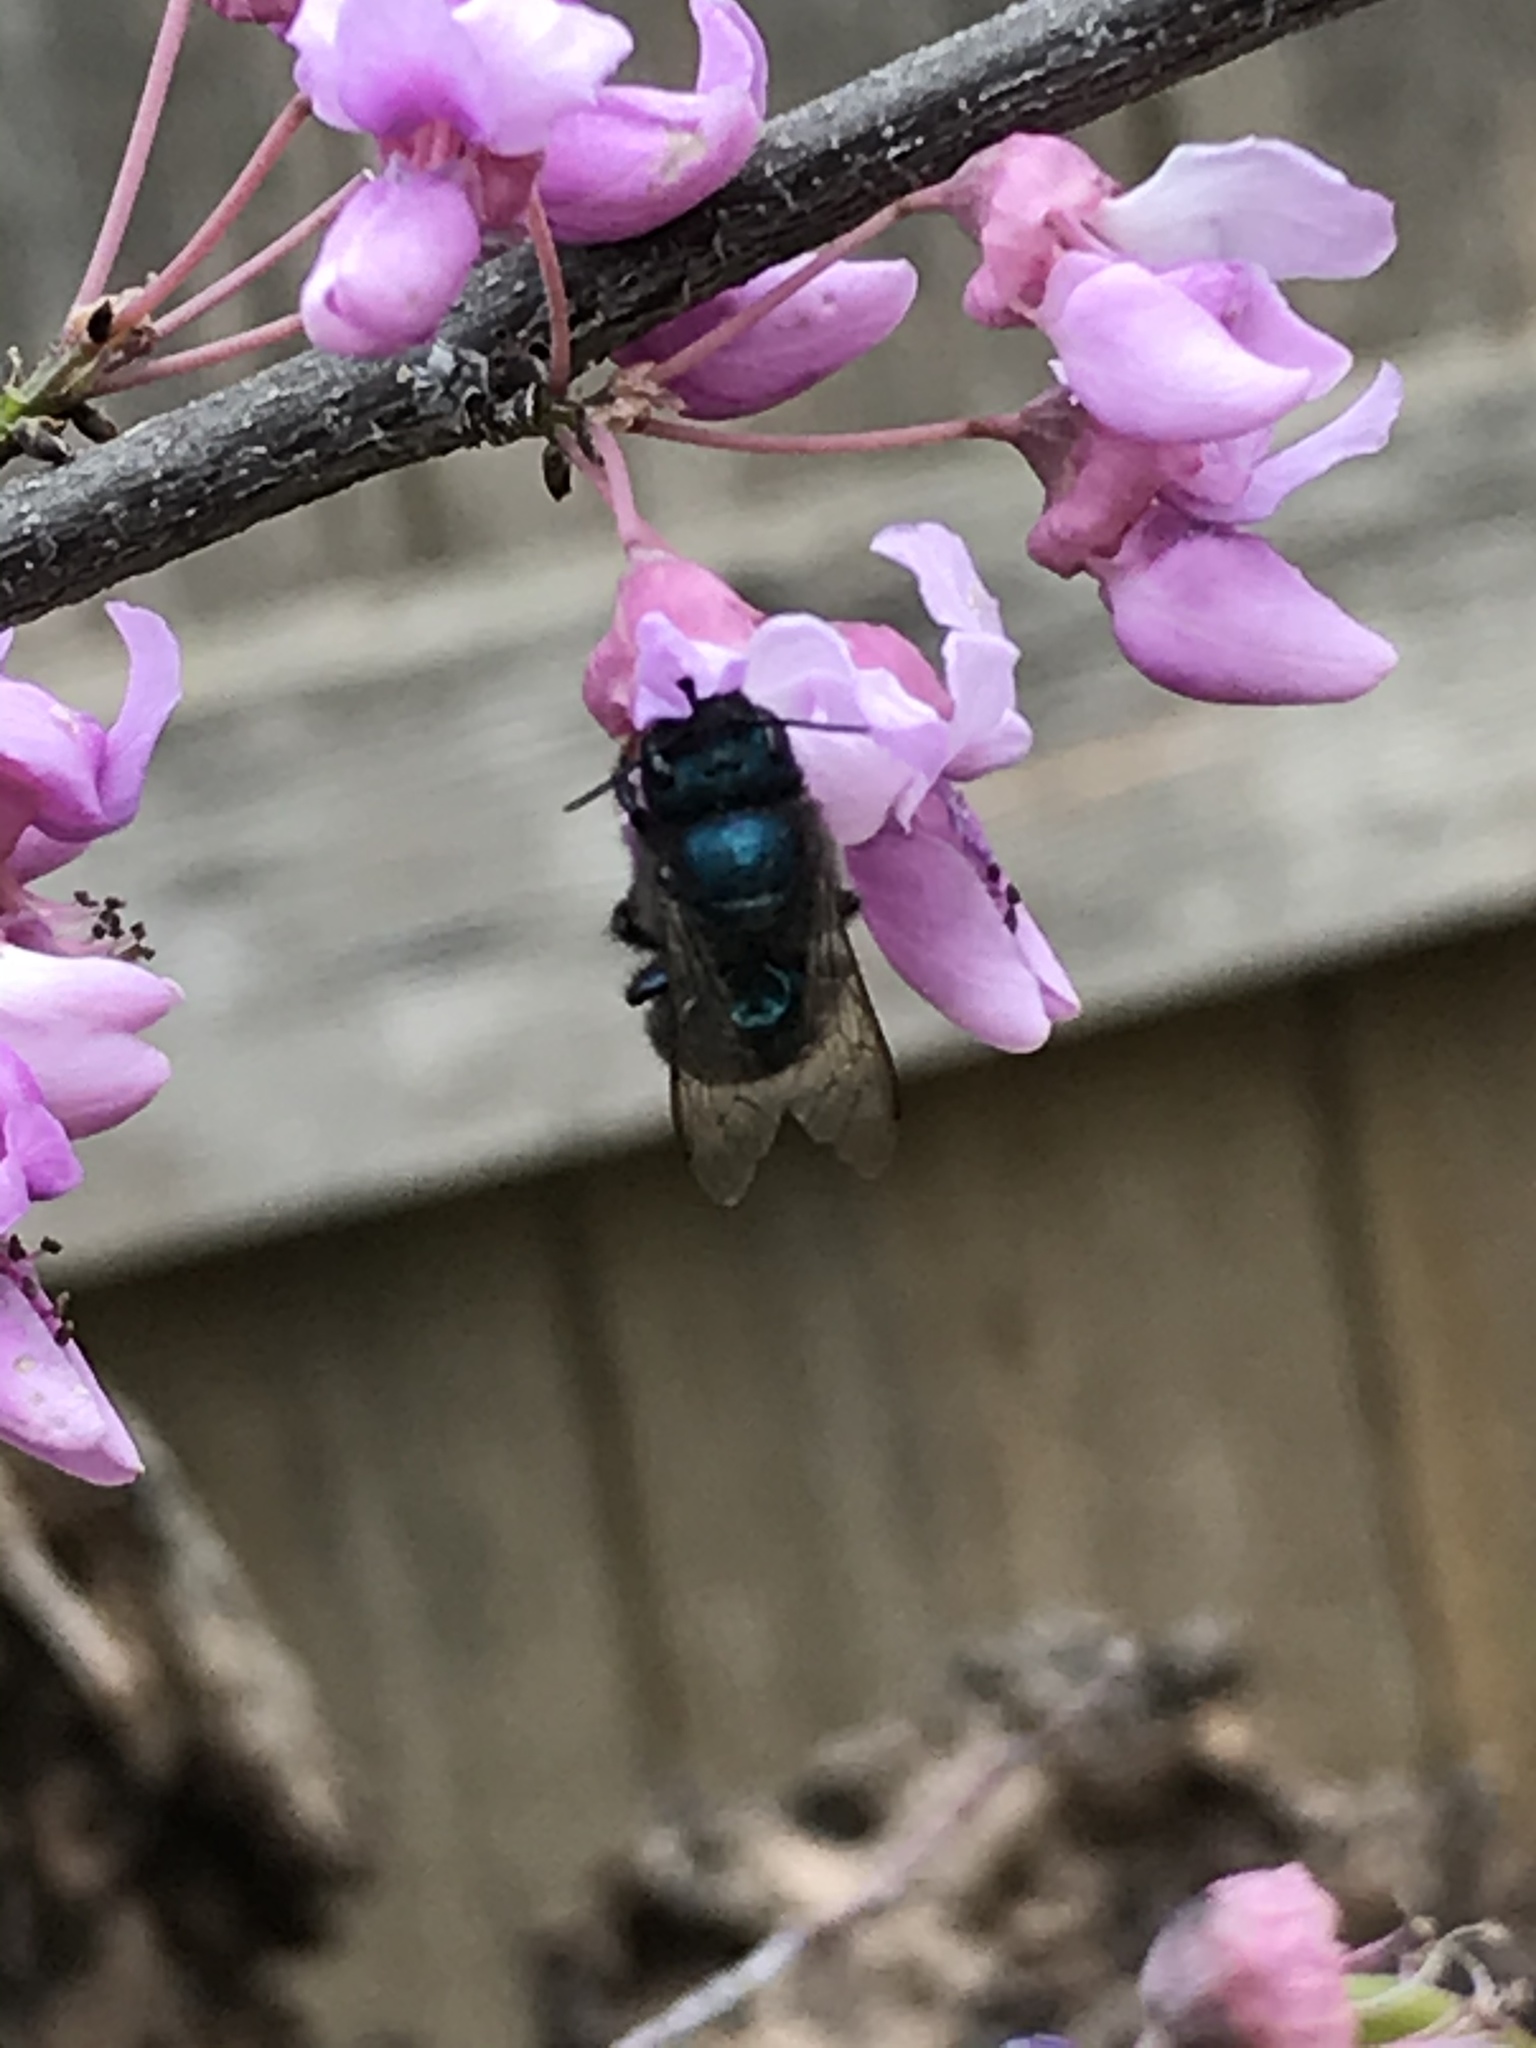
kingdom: Animalia
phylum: Arthropoda
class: Insecta
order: Hymenoptera
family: Megachilidae
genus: Osmia
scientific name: Osmia ribifloris
